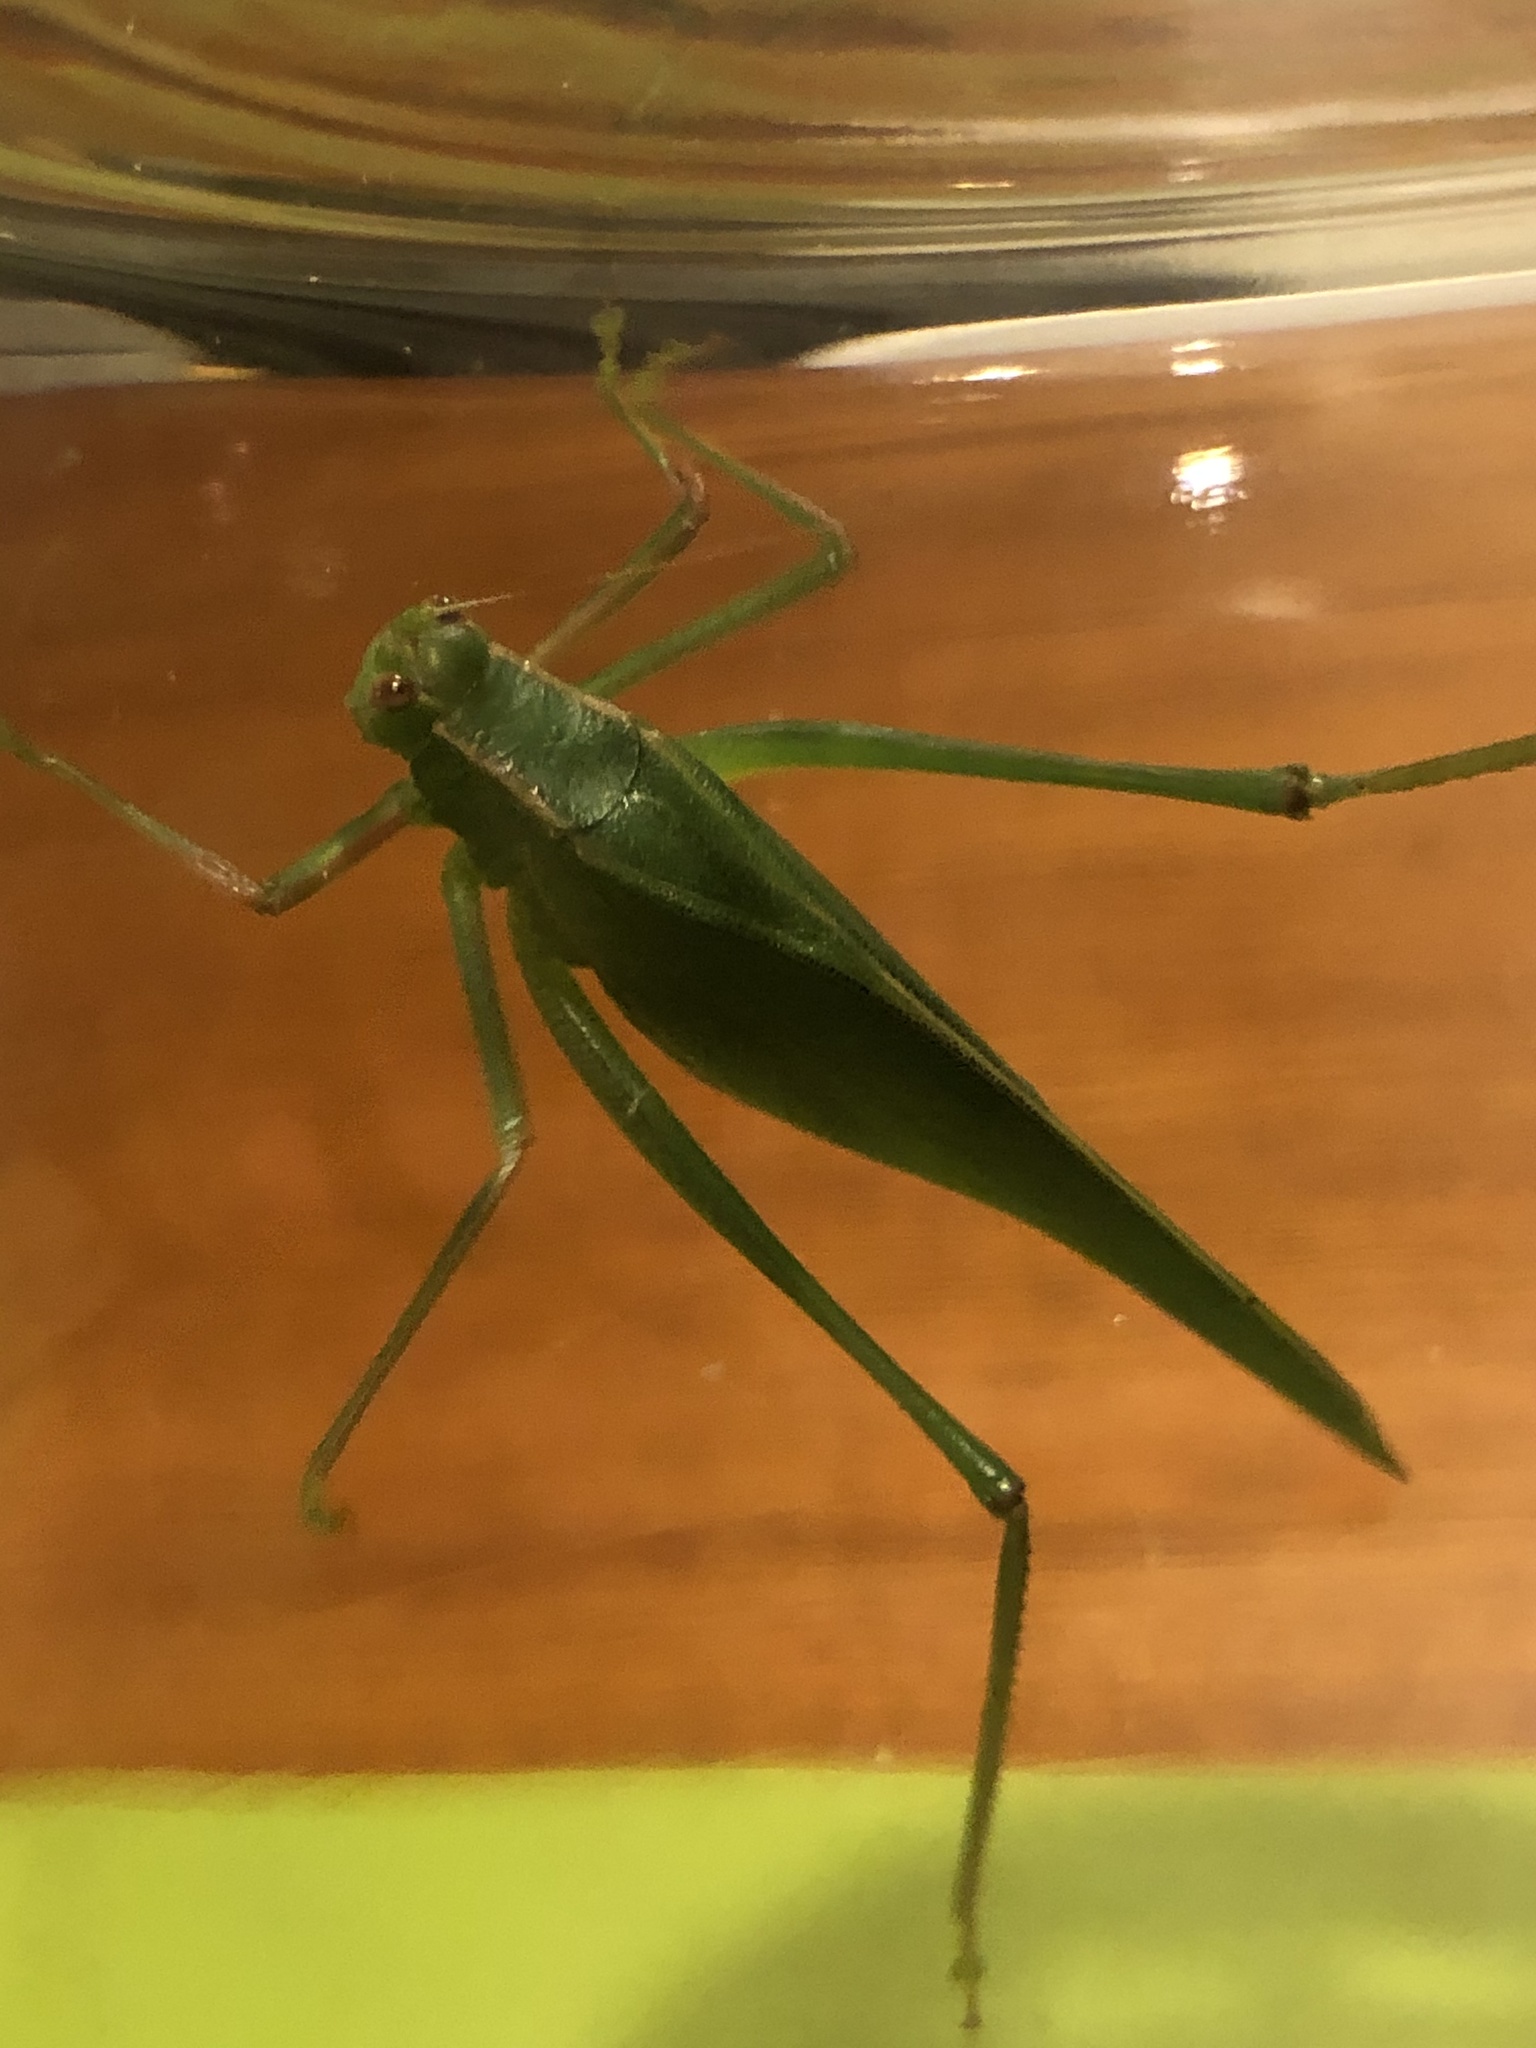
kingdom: Animalia
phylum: Arthropoda
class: Insecta
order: Orthoptera
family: Tettigoniidae
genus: Caedicia
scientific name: Caedicia simplex
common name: Common garden katydid
